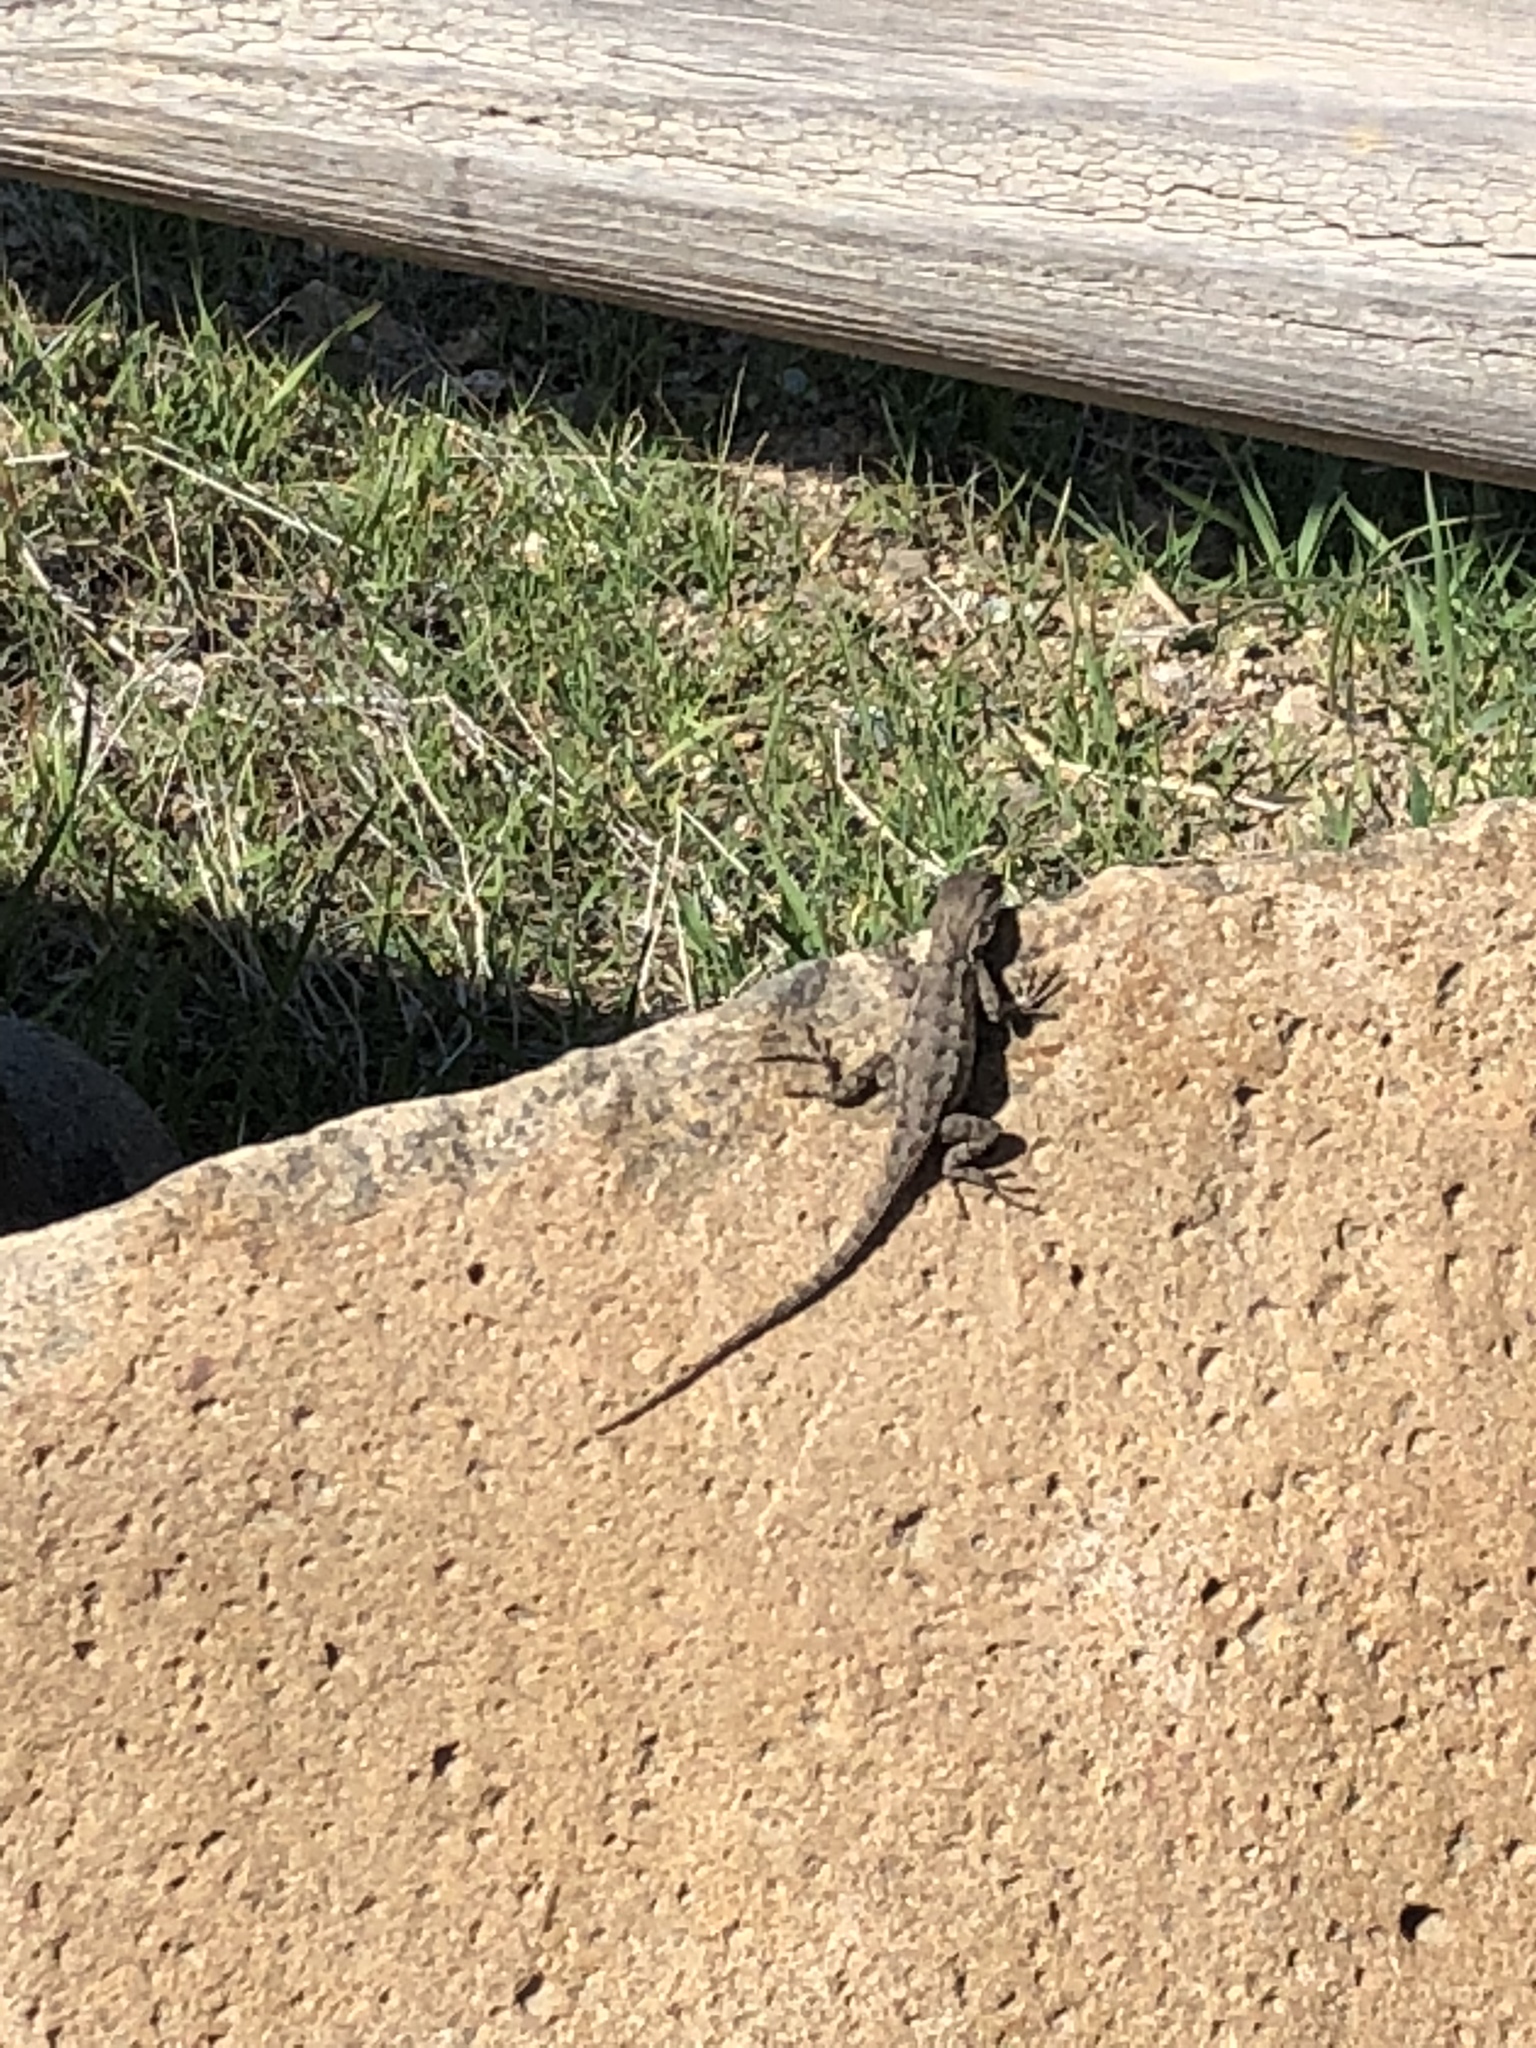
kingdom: Animalia
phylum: Chordata
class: Squamata
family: Phrynosomatidae
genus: Sceloporus
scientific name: Sceloporus occidentalis
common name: Western fence lizard
